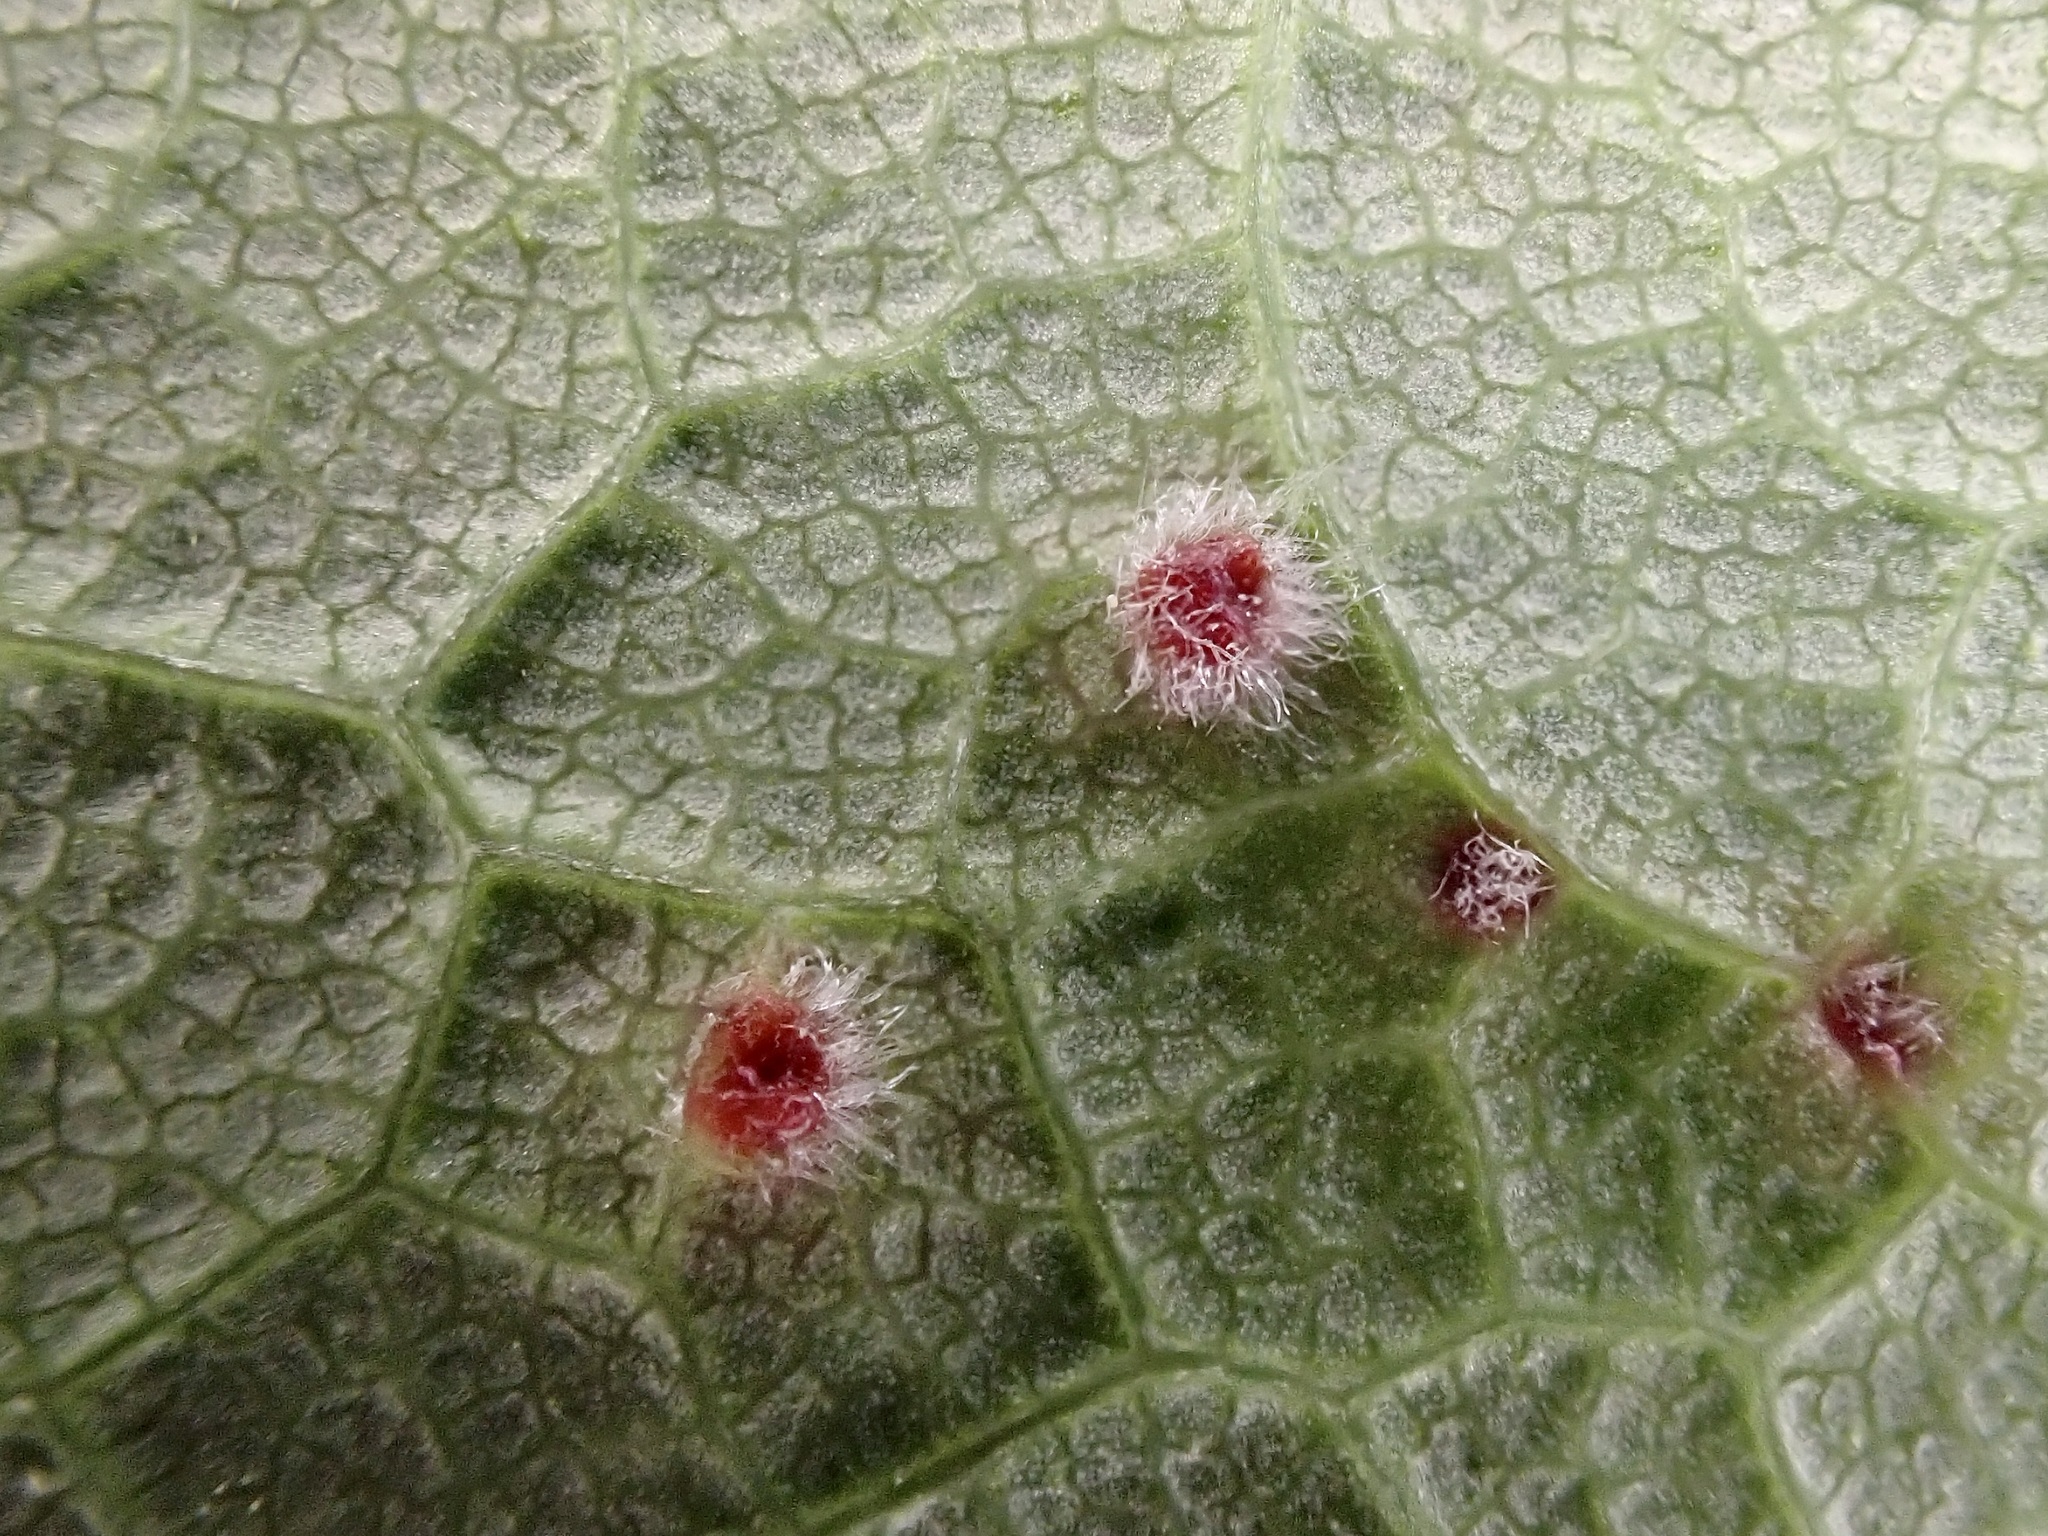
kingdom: Animalia
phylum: Arthropoda
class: Arachnida
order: Trombidiformes
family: Eriophyidae
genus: Aceria
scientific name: Aceria macrorhynchus
